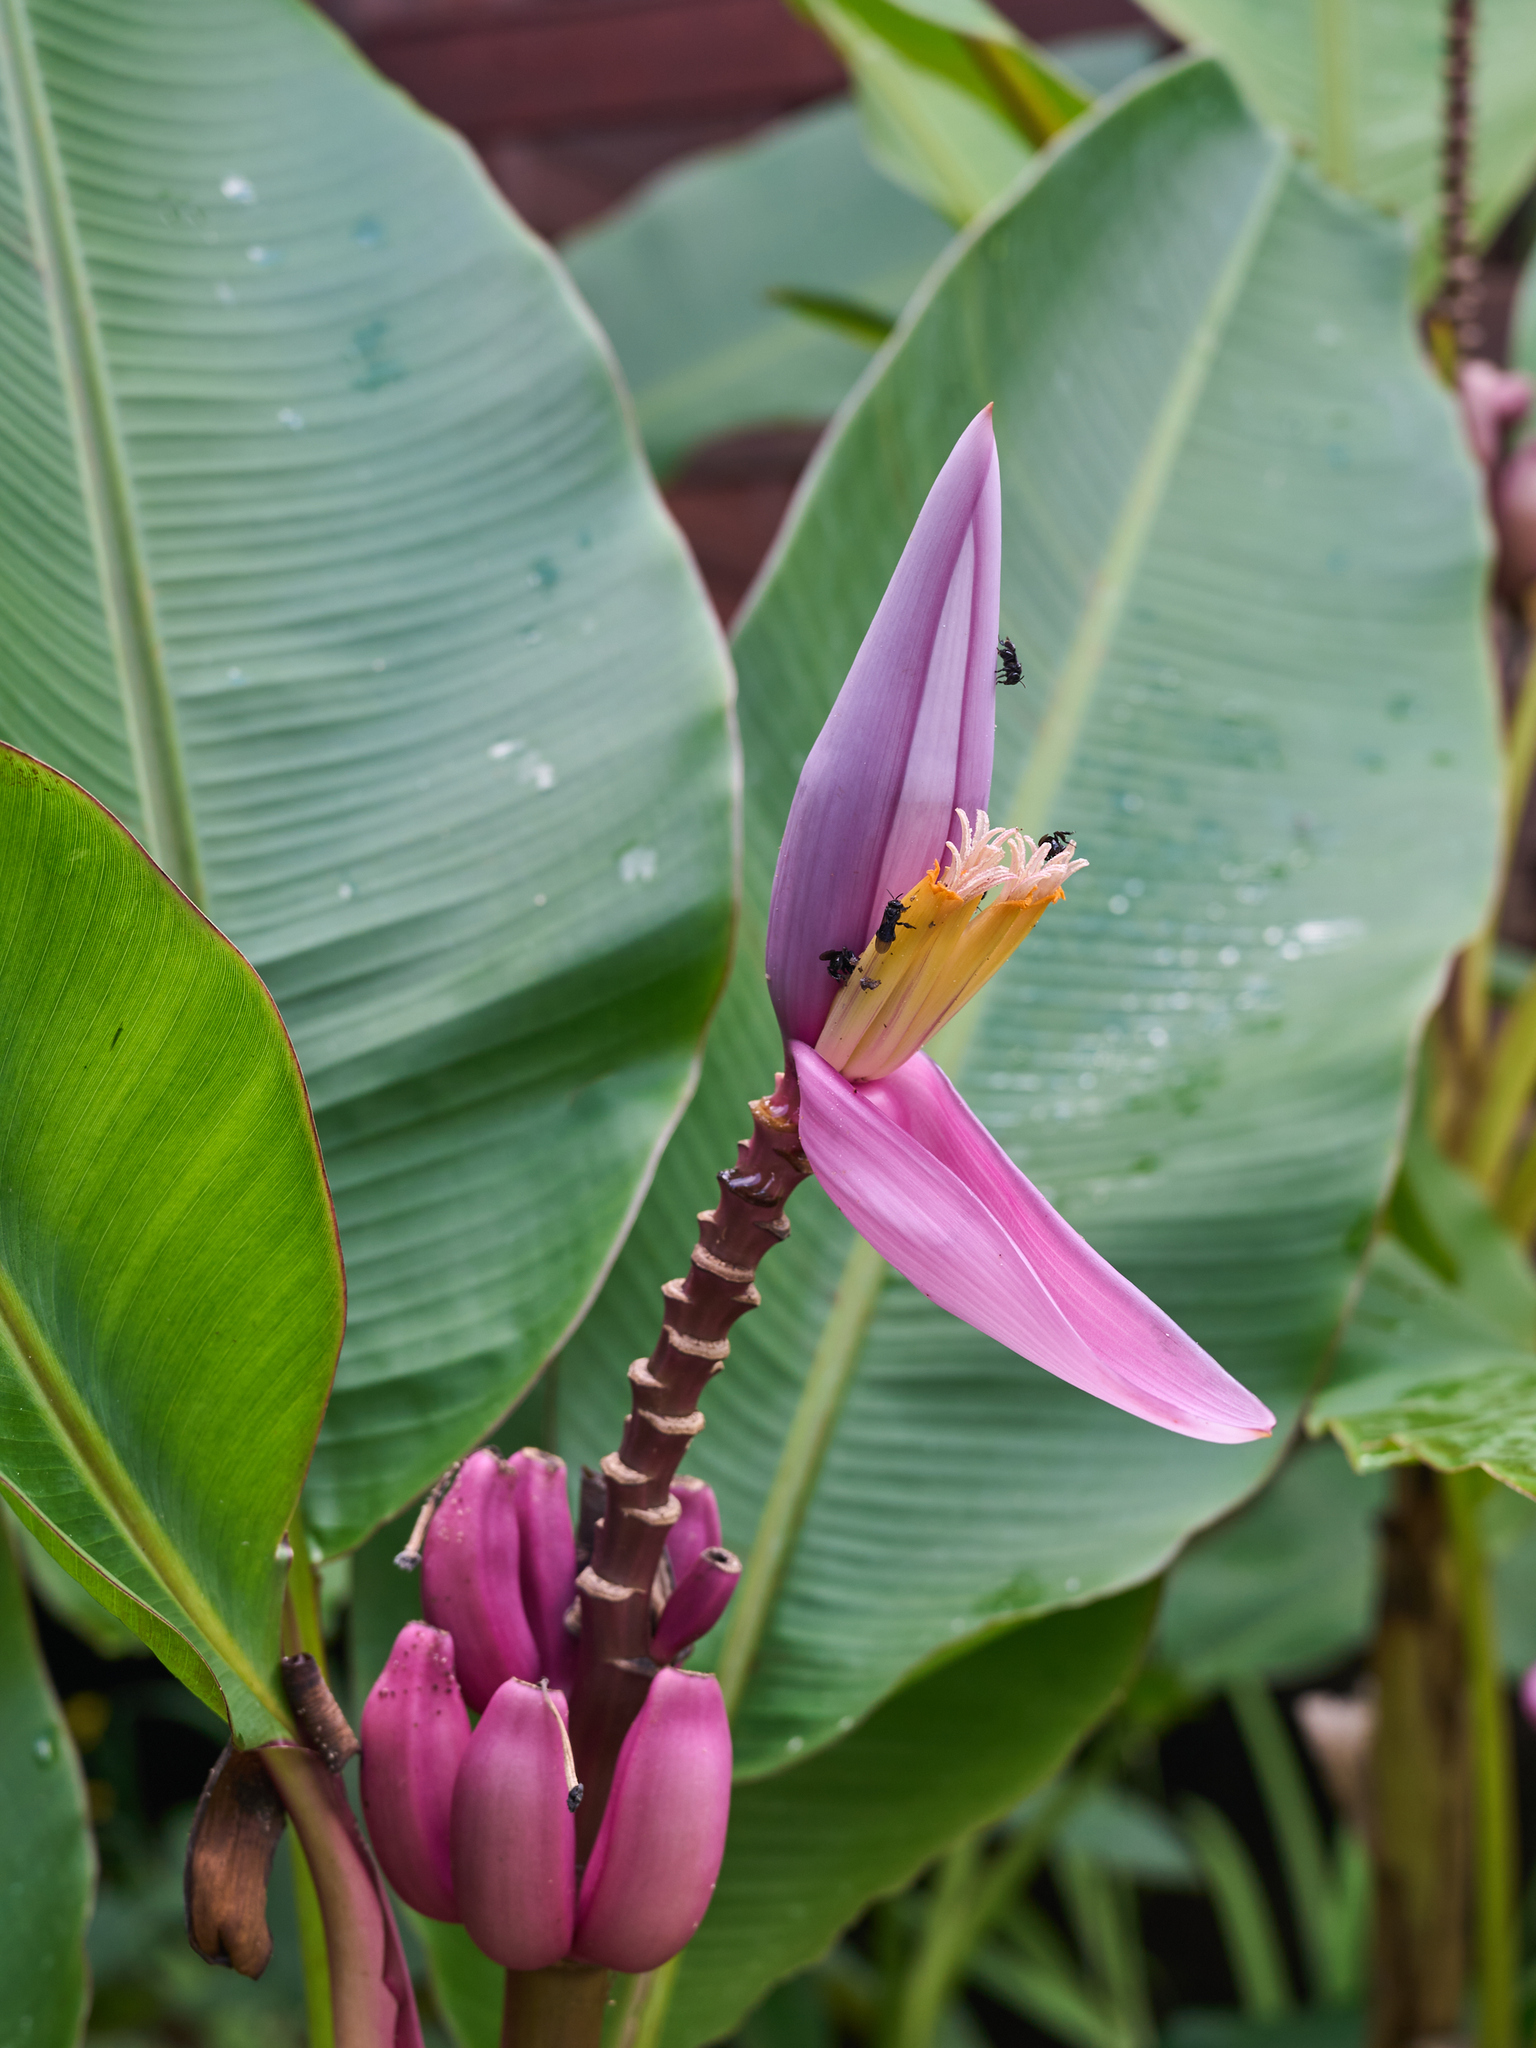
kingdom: Plantae
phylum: Tracheophyta
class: Liliopsida
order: Zingiberales
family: Musaceae
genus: Musa
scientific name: Musa ornata
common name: Flowering banana
